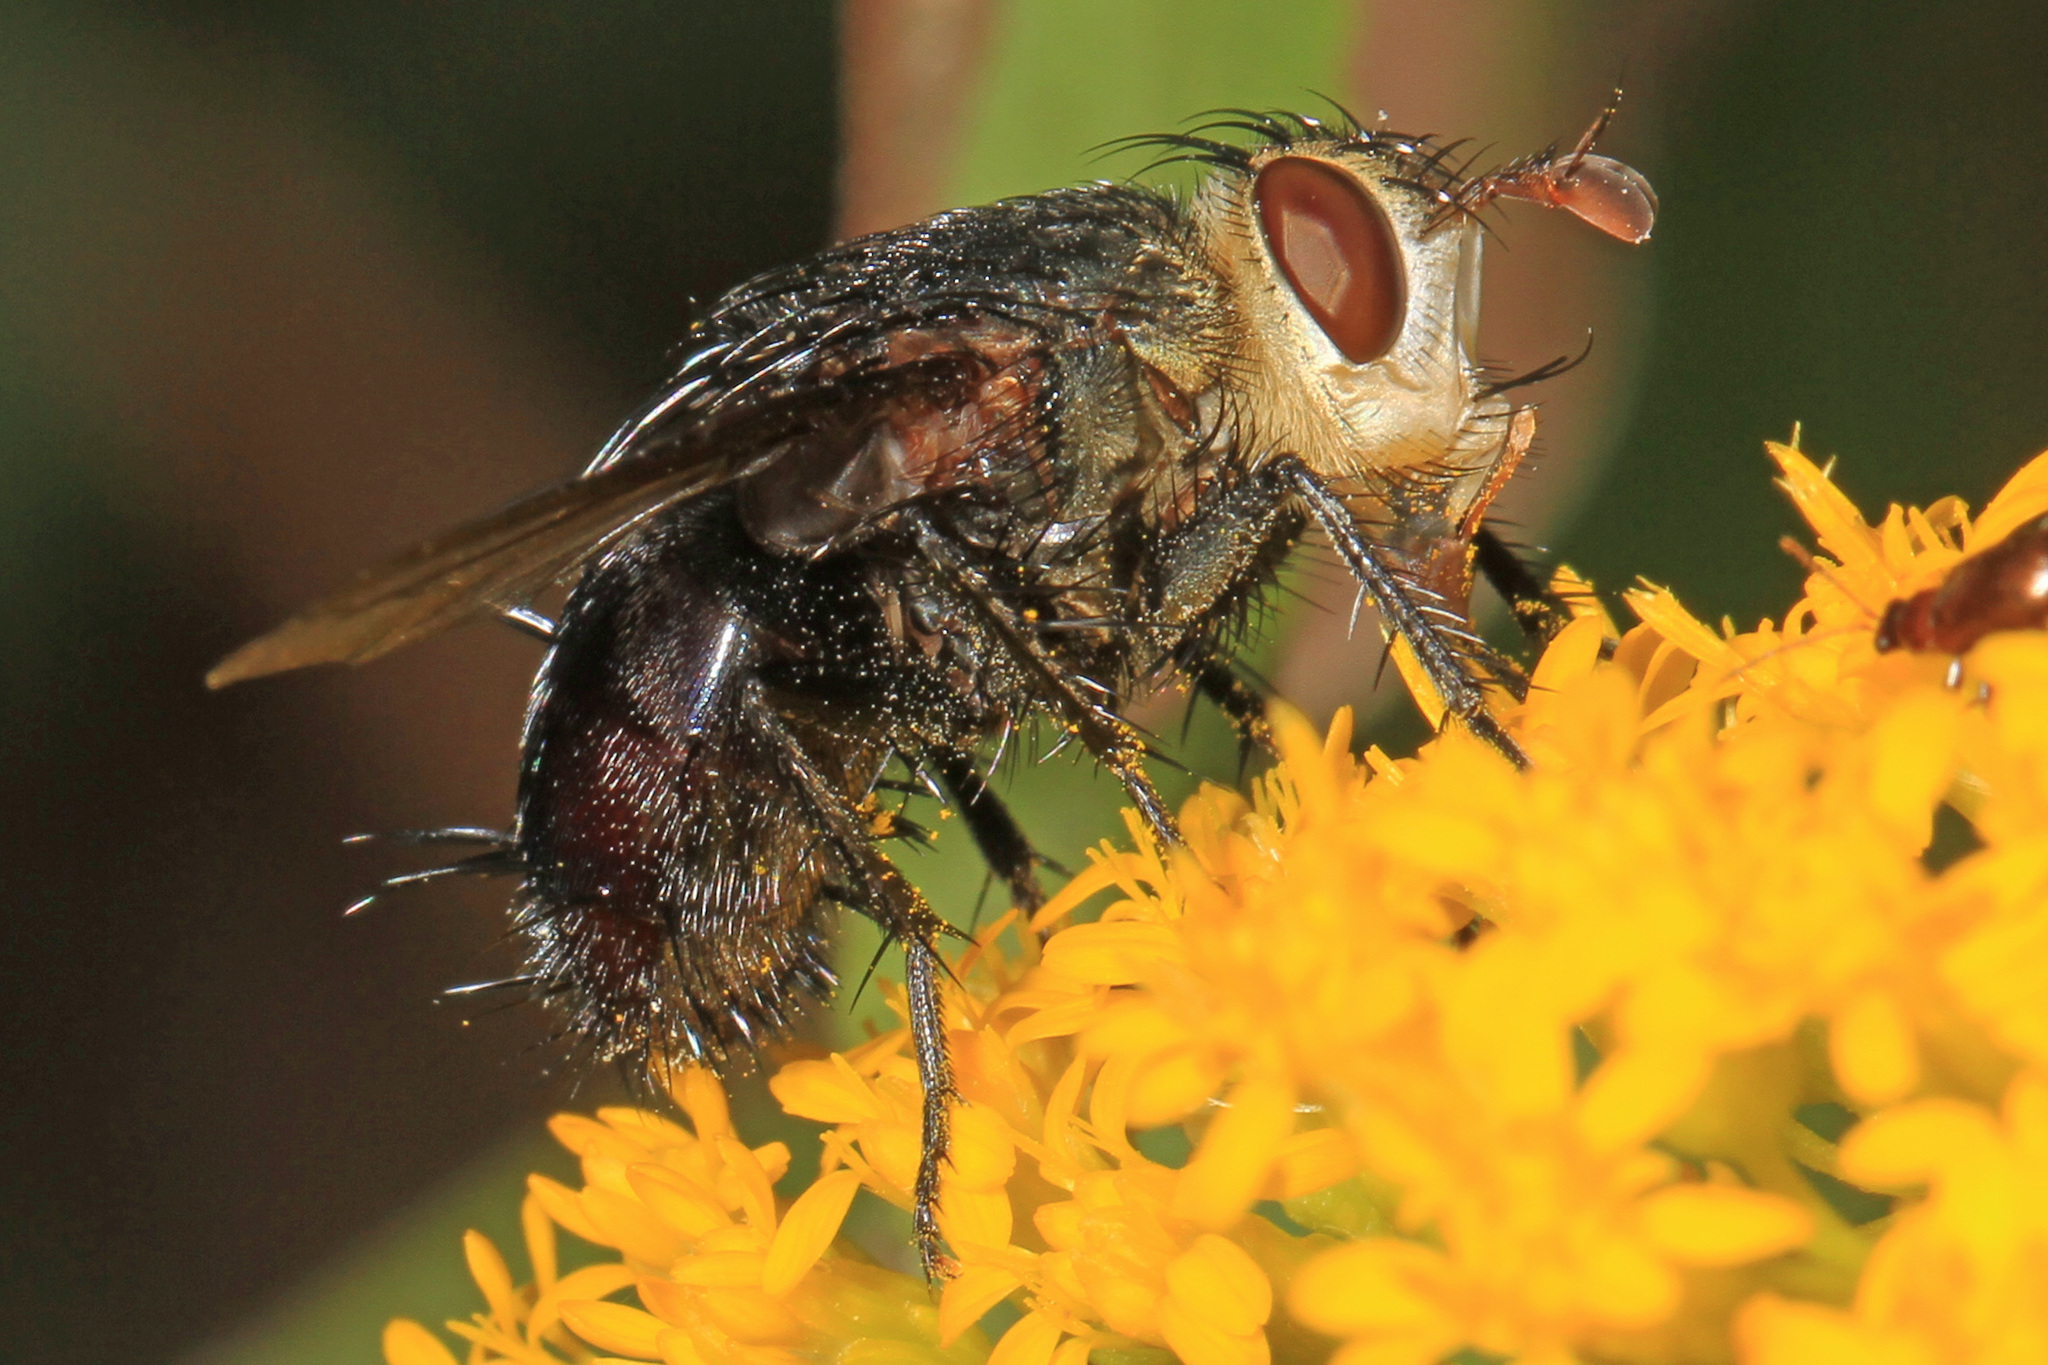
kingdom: Animalia
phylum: Arthropoda
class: Insecta
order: Diptera
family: Tachinidae
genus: Archytas
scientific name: Archytas metallicus
